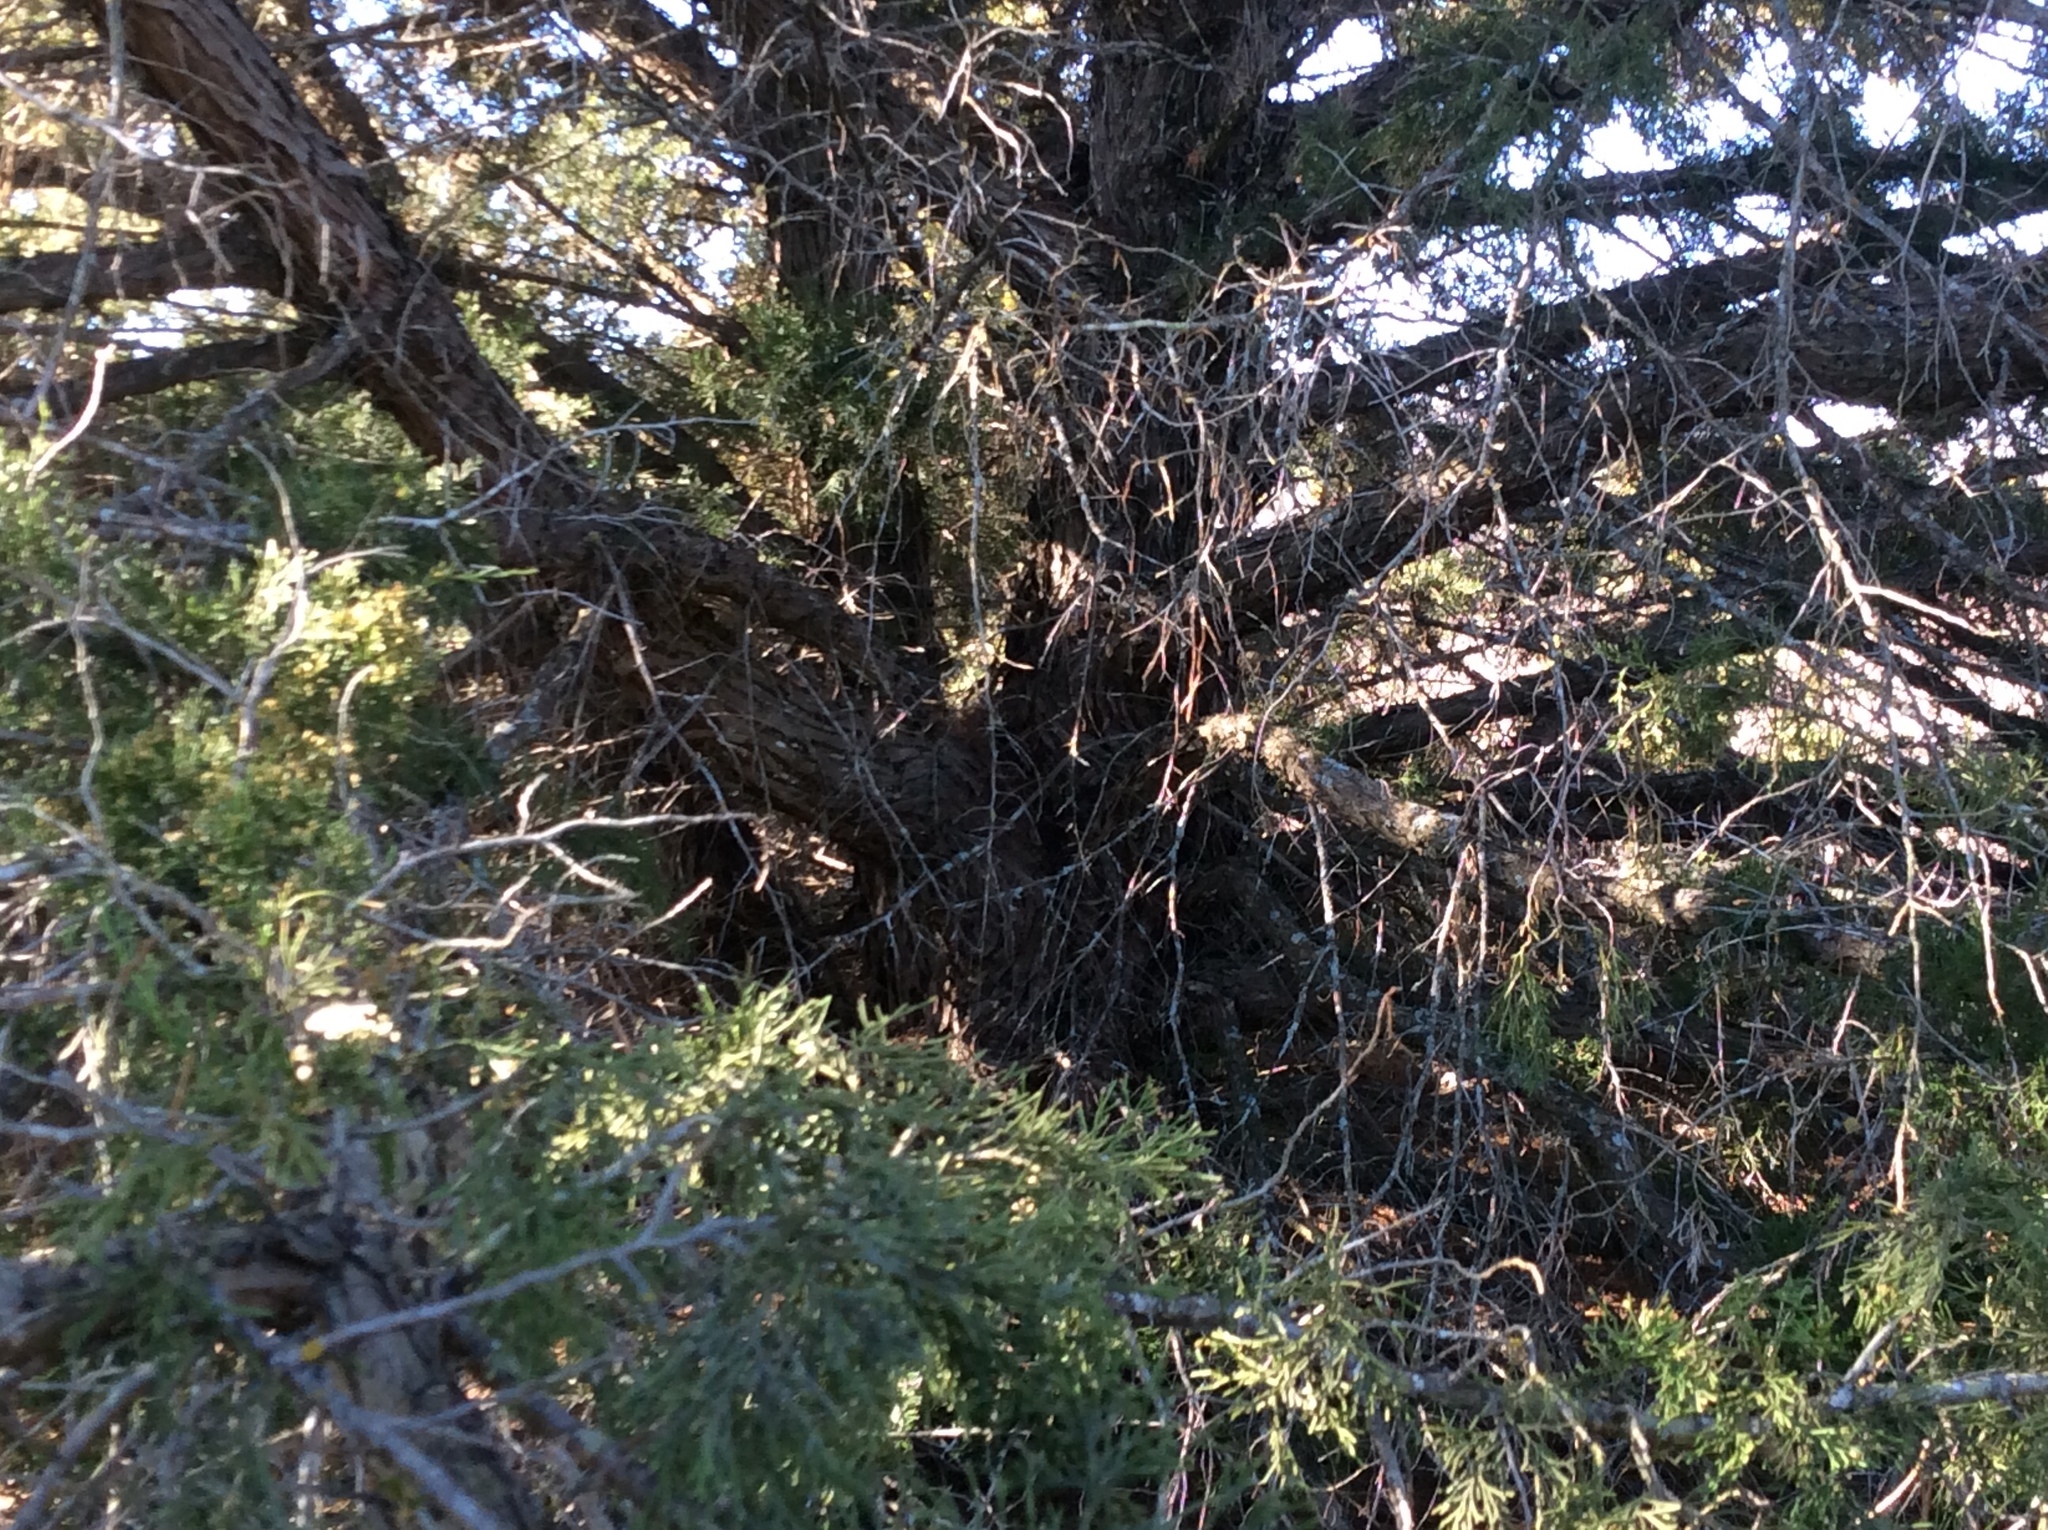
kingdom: Plantae
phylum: Tracheophyta
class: Pinopsida
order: Pinales
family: Cupressaceae
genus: Juniperus
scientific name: Juniperus ashei
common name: Mexican juniper
